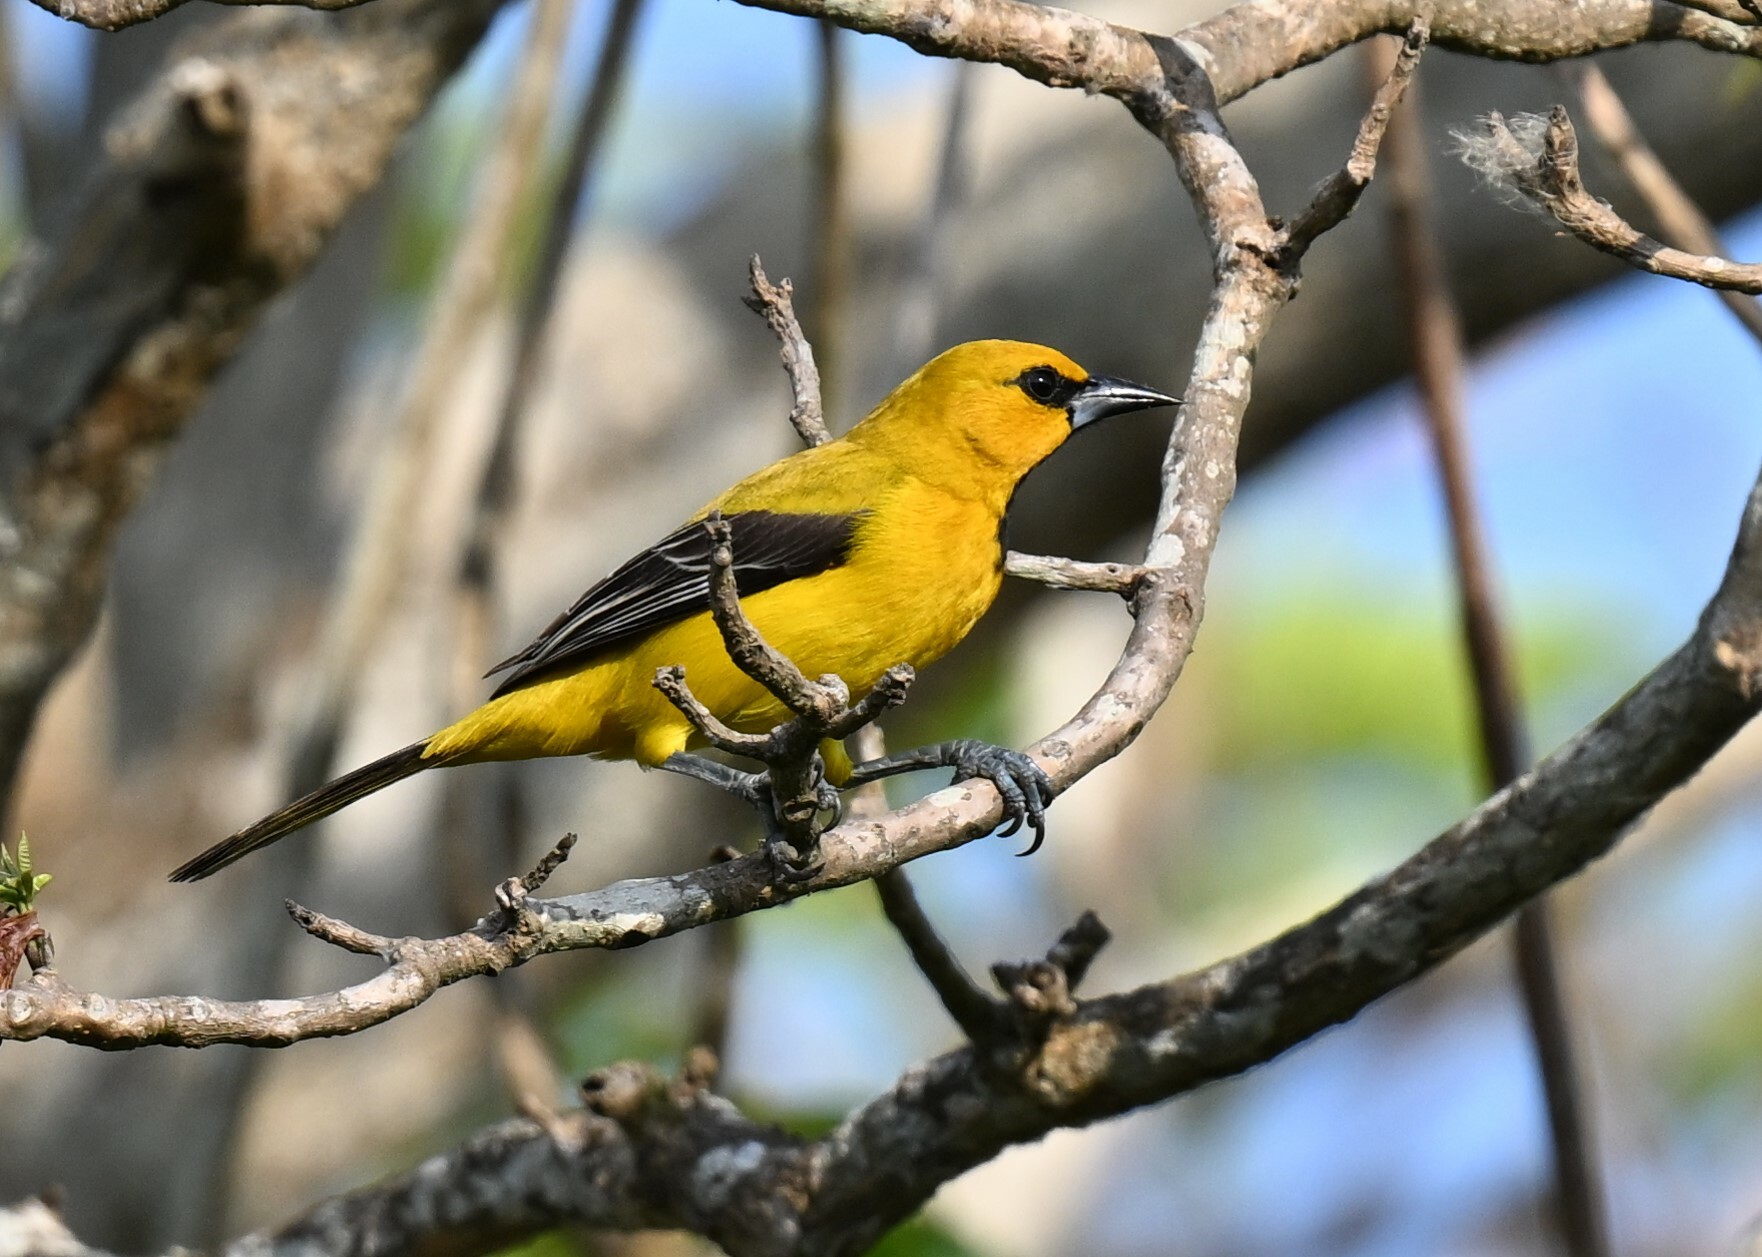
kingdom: Animalia
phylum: Chordata
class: Aves
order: Passeriformes
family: Icteridae
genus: Icterus
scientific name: Icterus nigrogularis
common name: Yellow oriole
